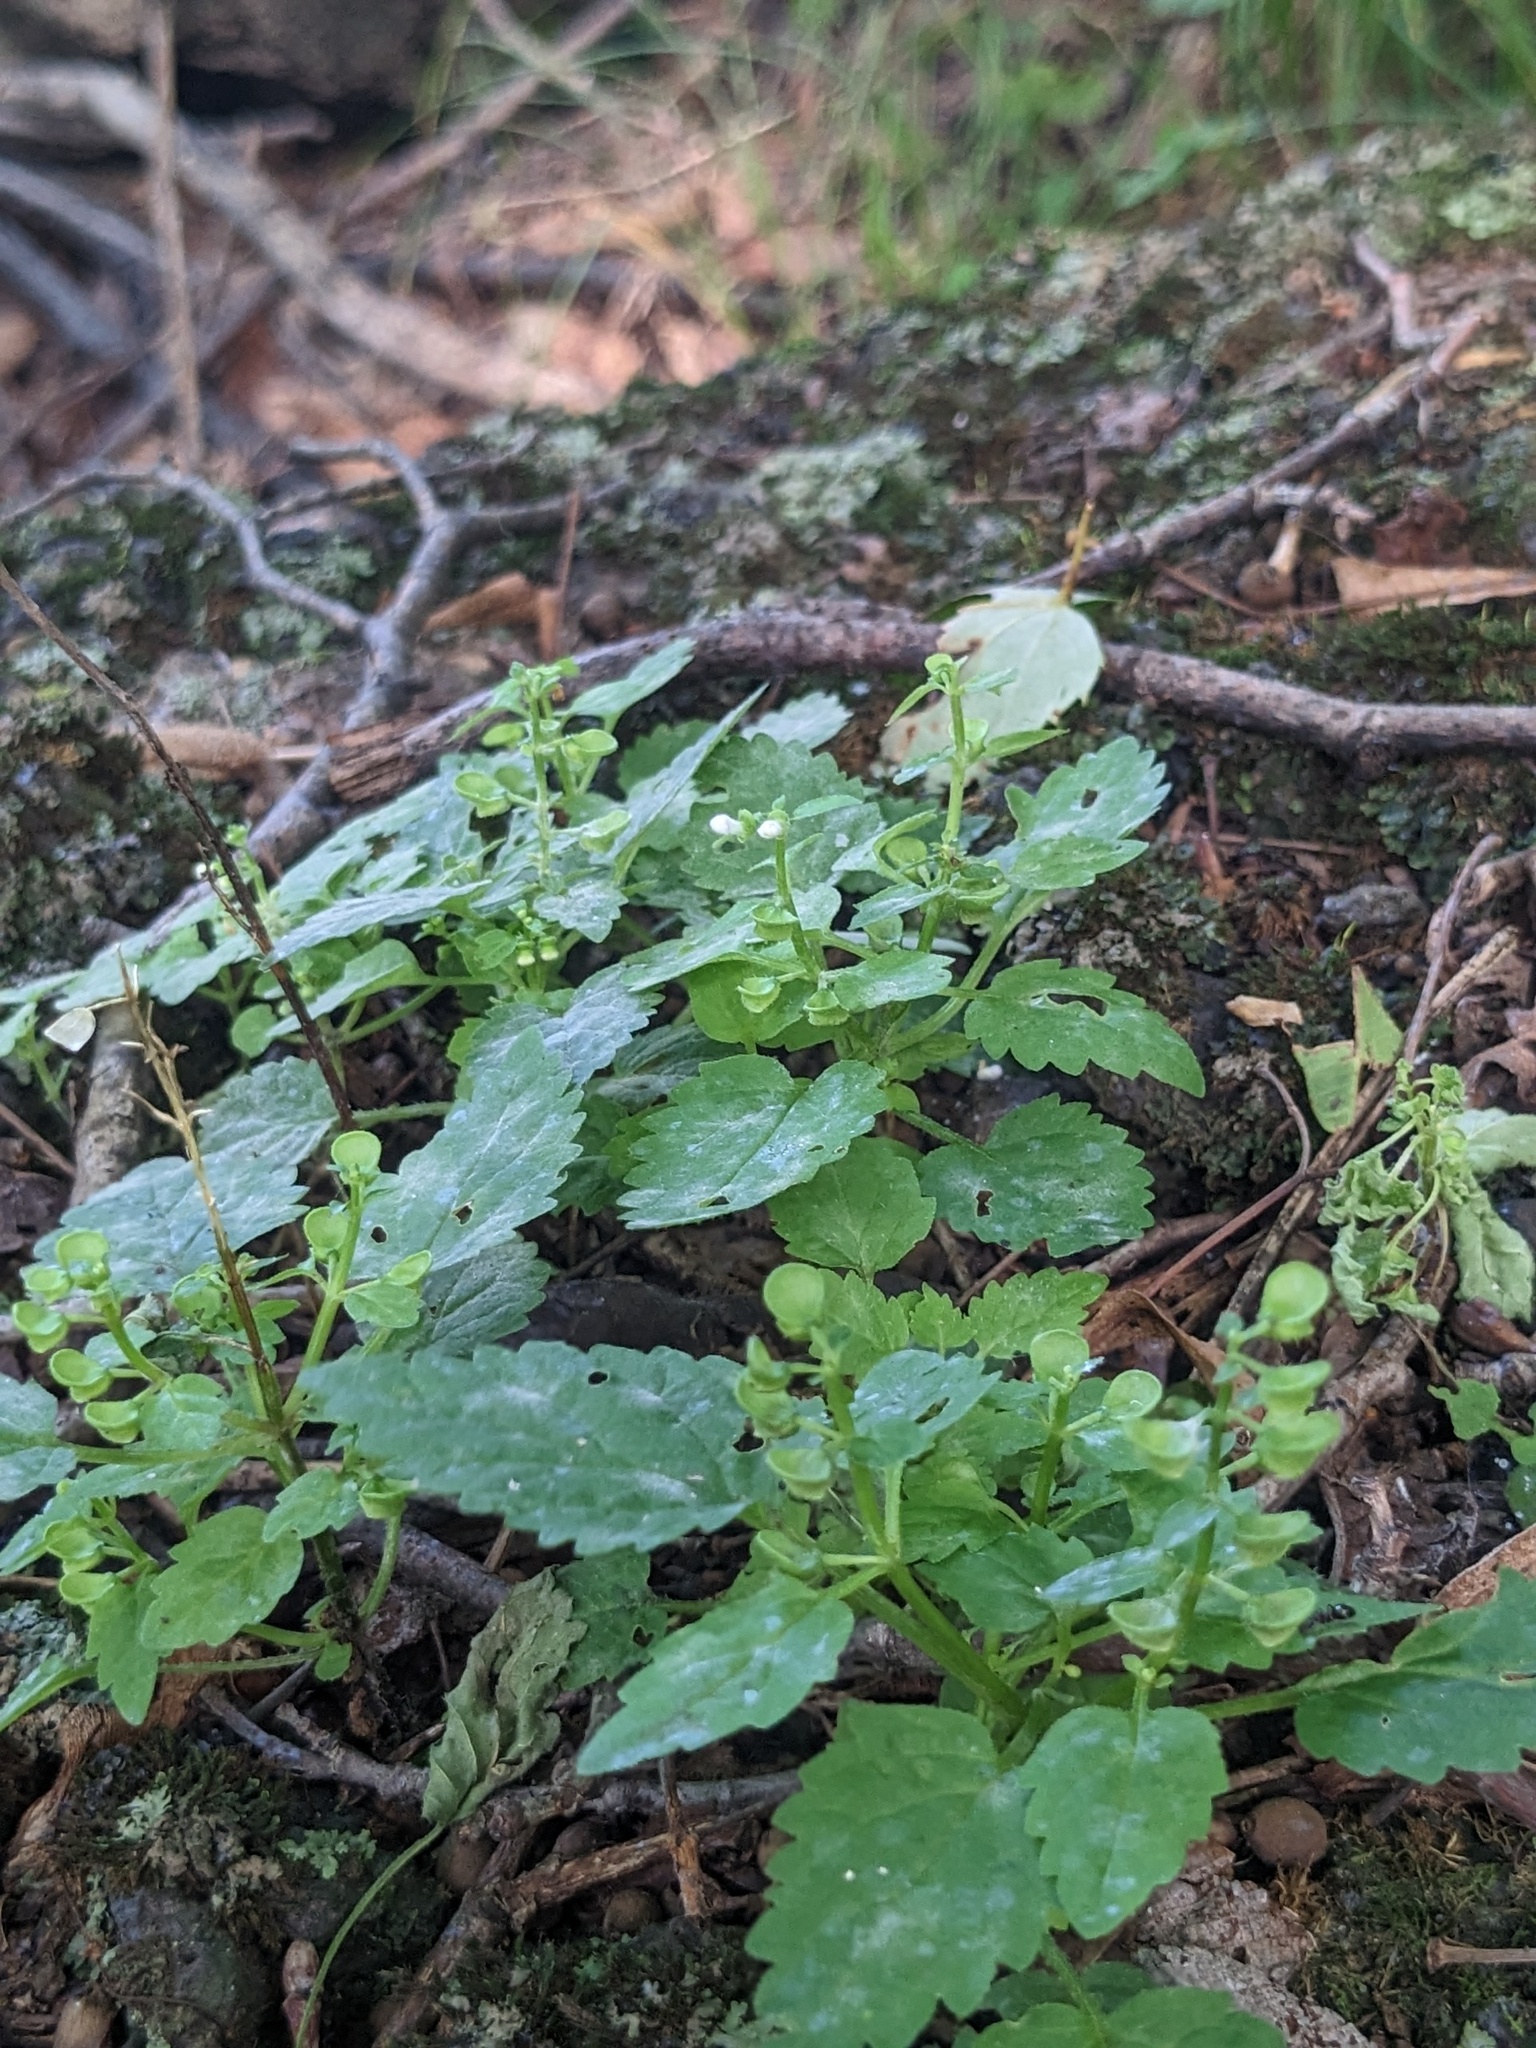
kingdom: Plantae
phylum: Tracheophyta
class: Magnoliopsida
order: Lamiales
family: Lamiaceae
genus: Scutellaria
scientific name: Scutellaria pekinensis
